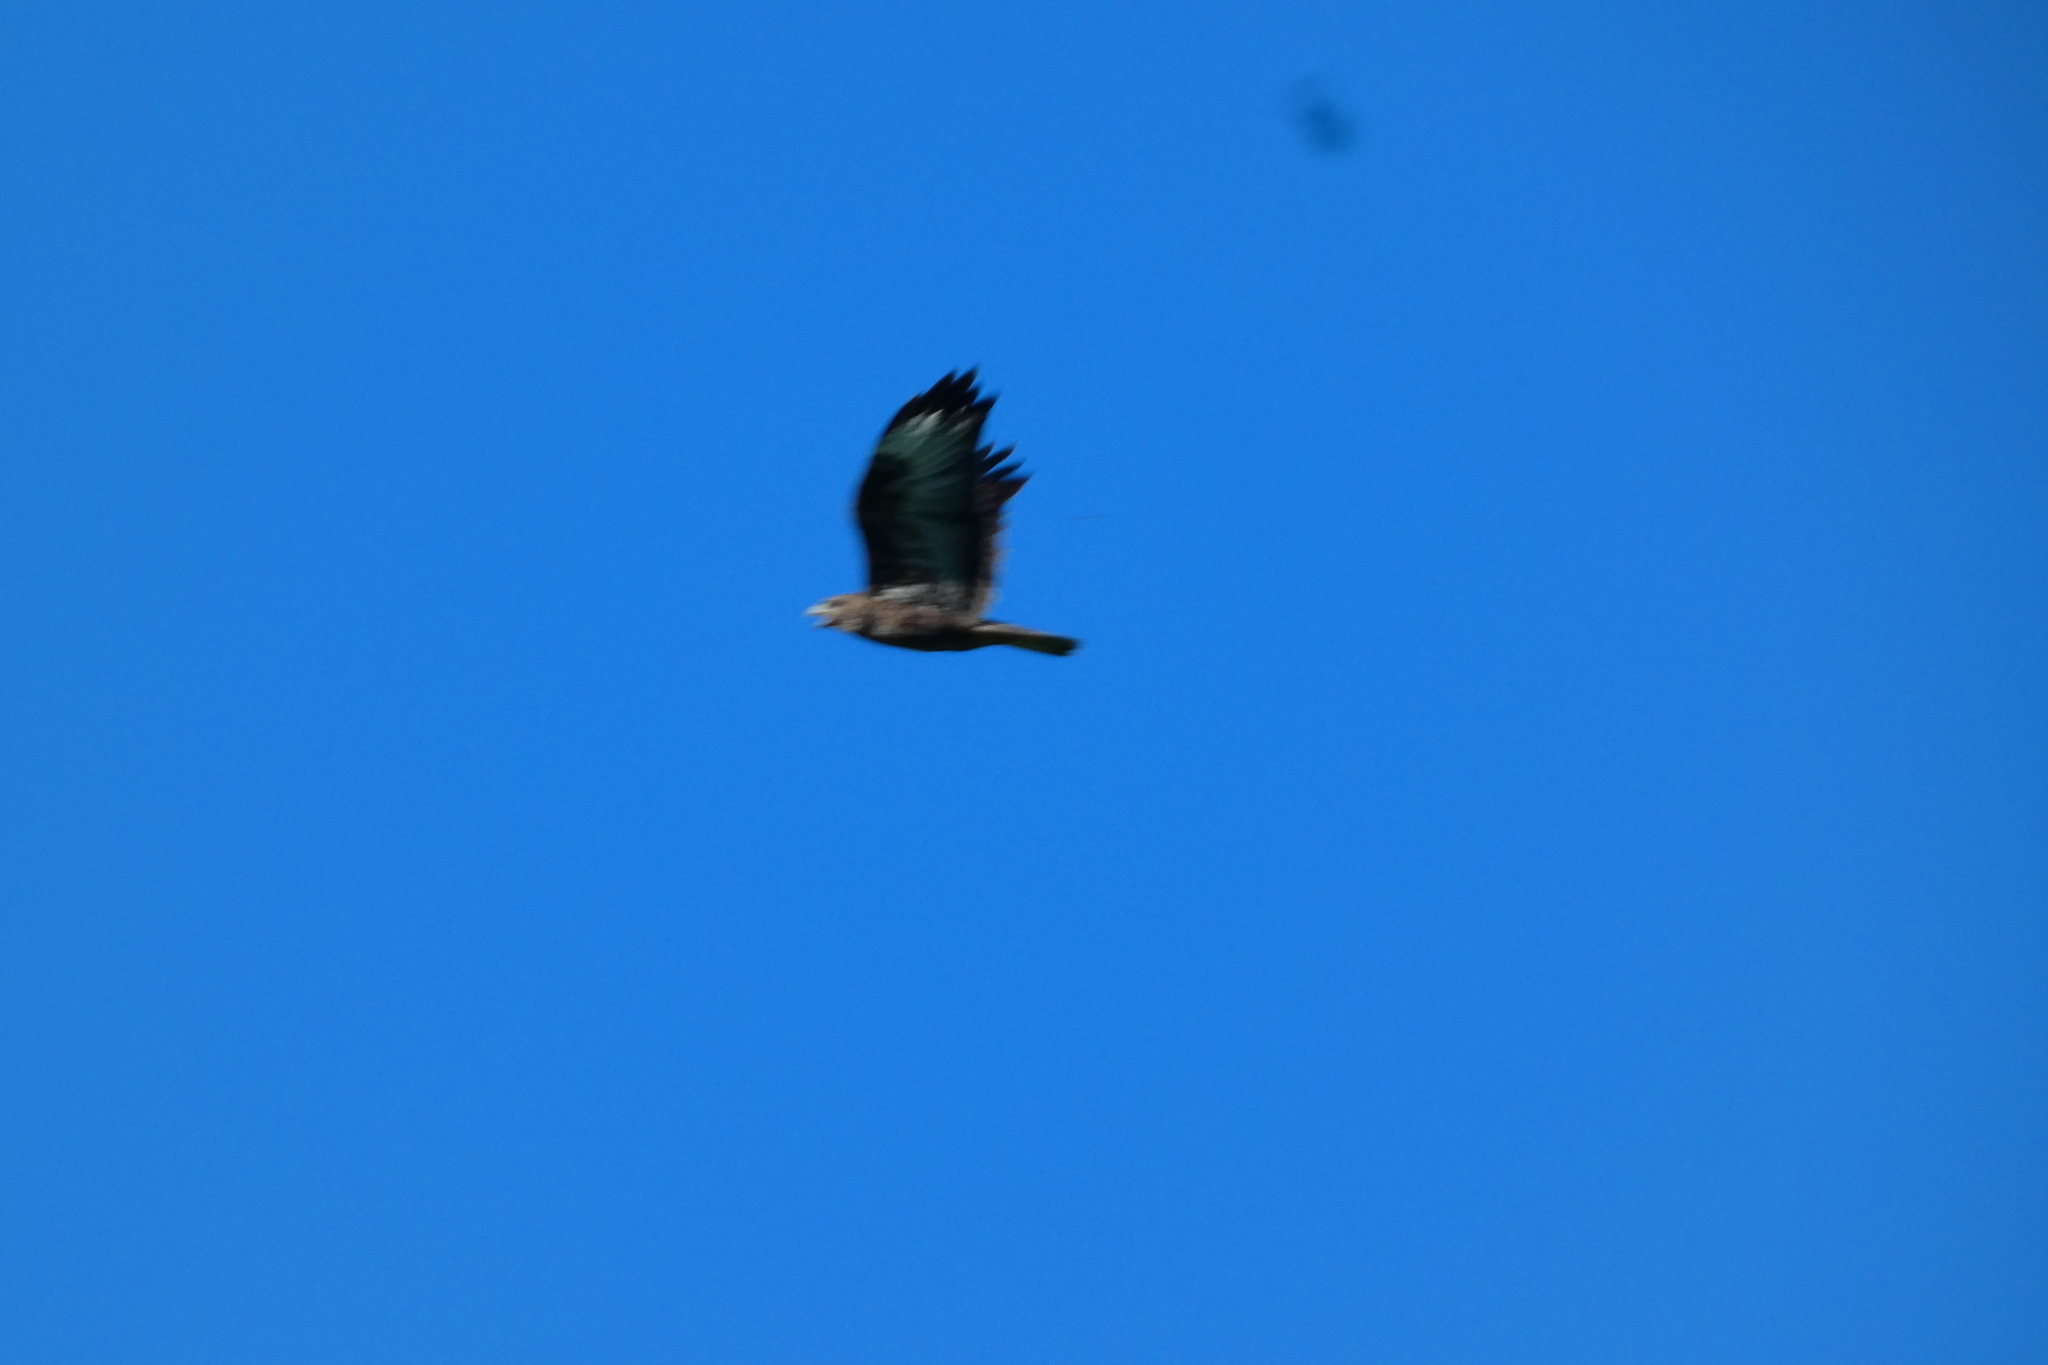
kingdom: Animalia
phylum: Chordata
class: Aves
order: Accipitriformes
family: Accipitridae
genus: Buteo
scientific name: Buteo buteo
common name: Common buzzard
